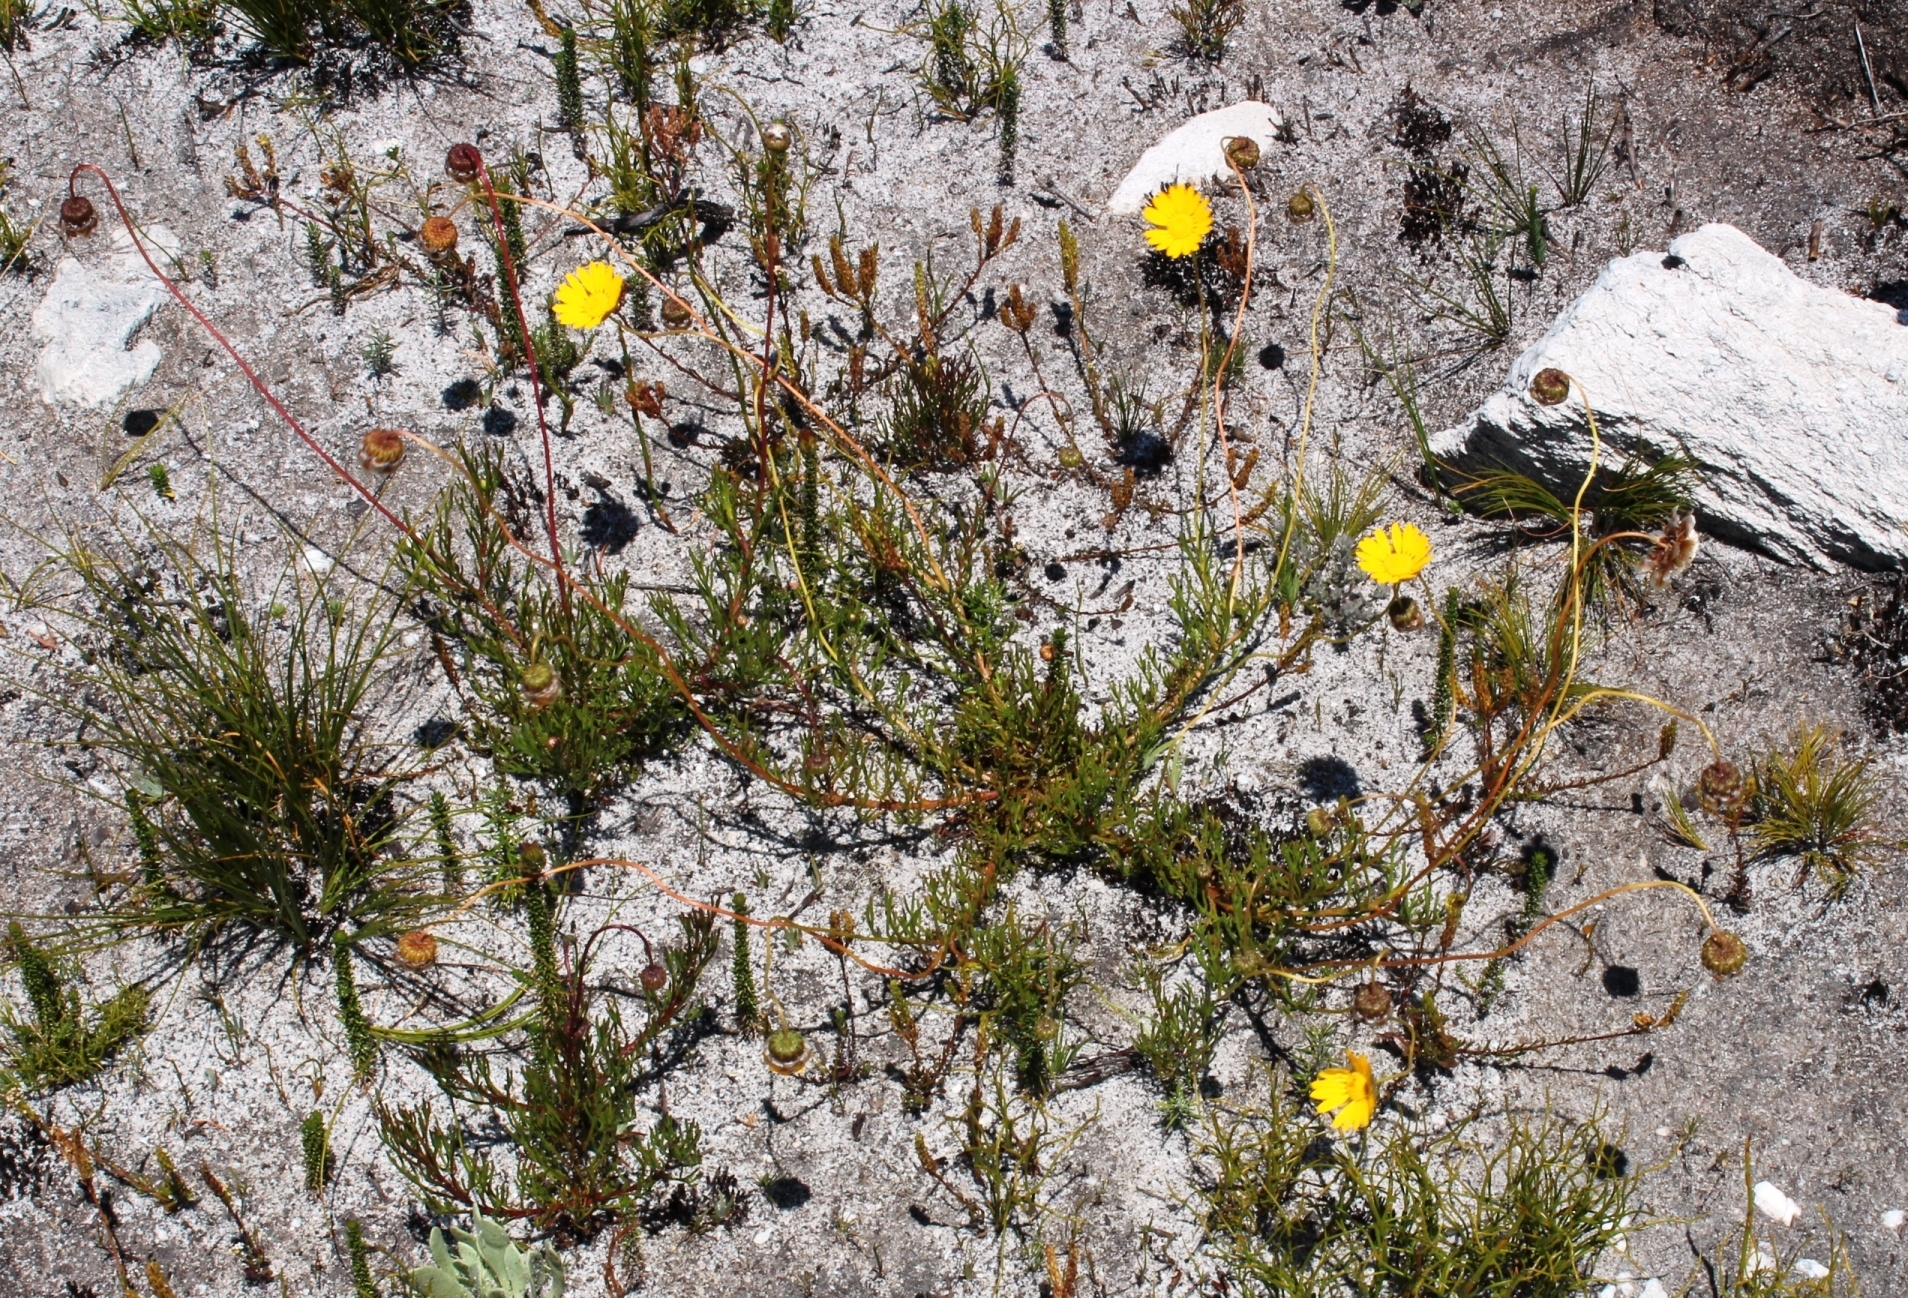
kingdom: Plantae
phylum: Tracheophyta
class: Magnoliopsida
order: Asterales
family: Asteraceae
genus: Ursinia
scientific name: Ursinia paleacea
